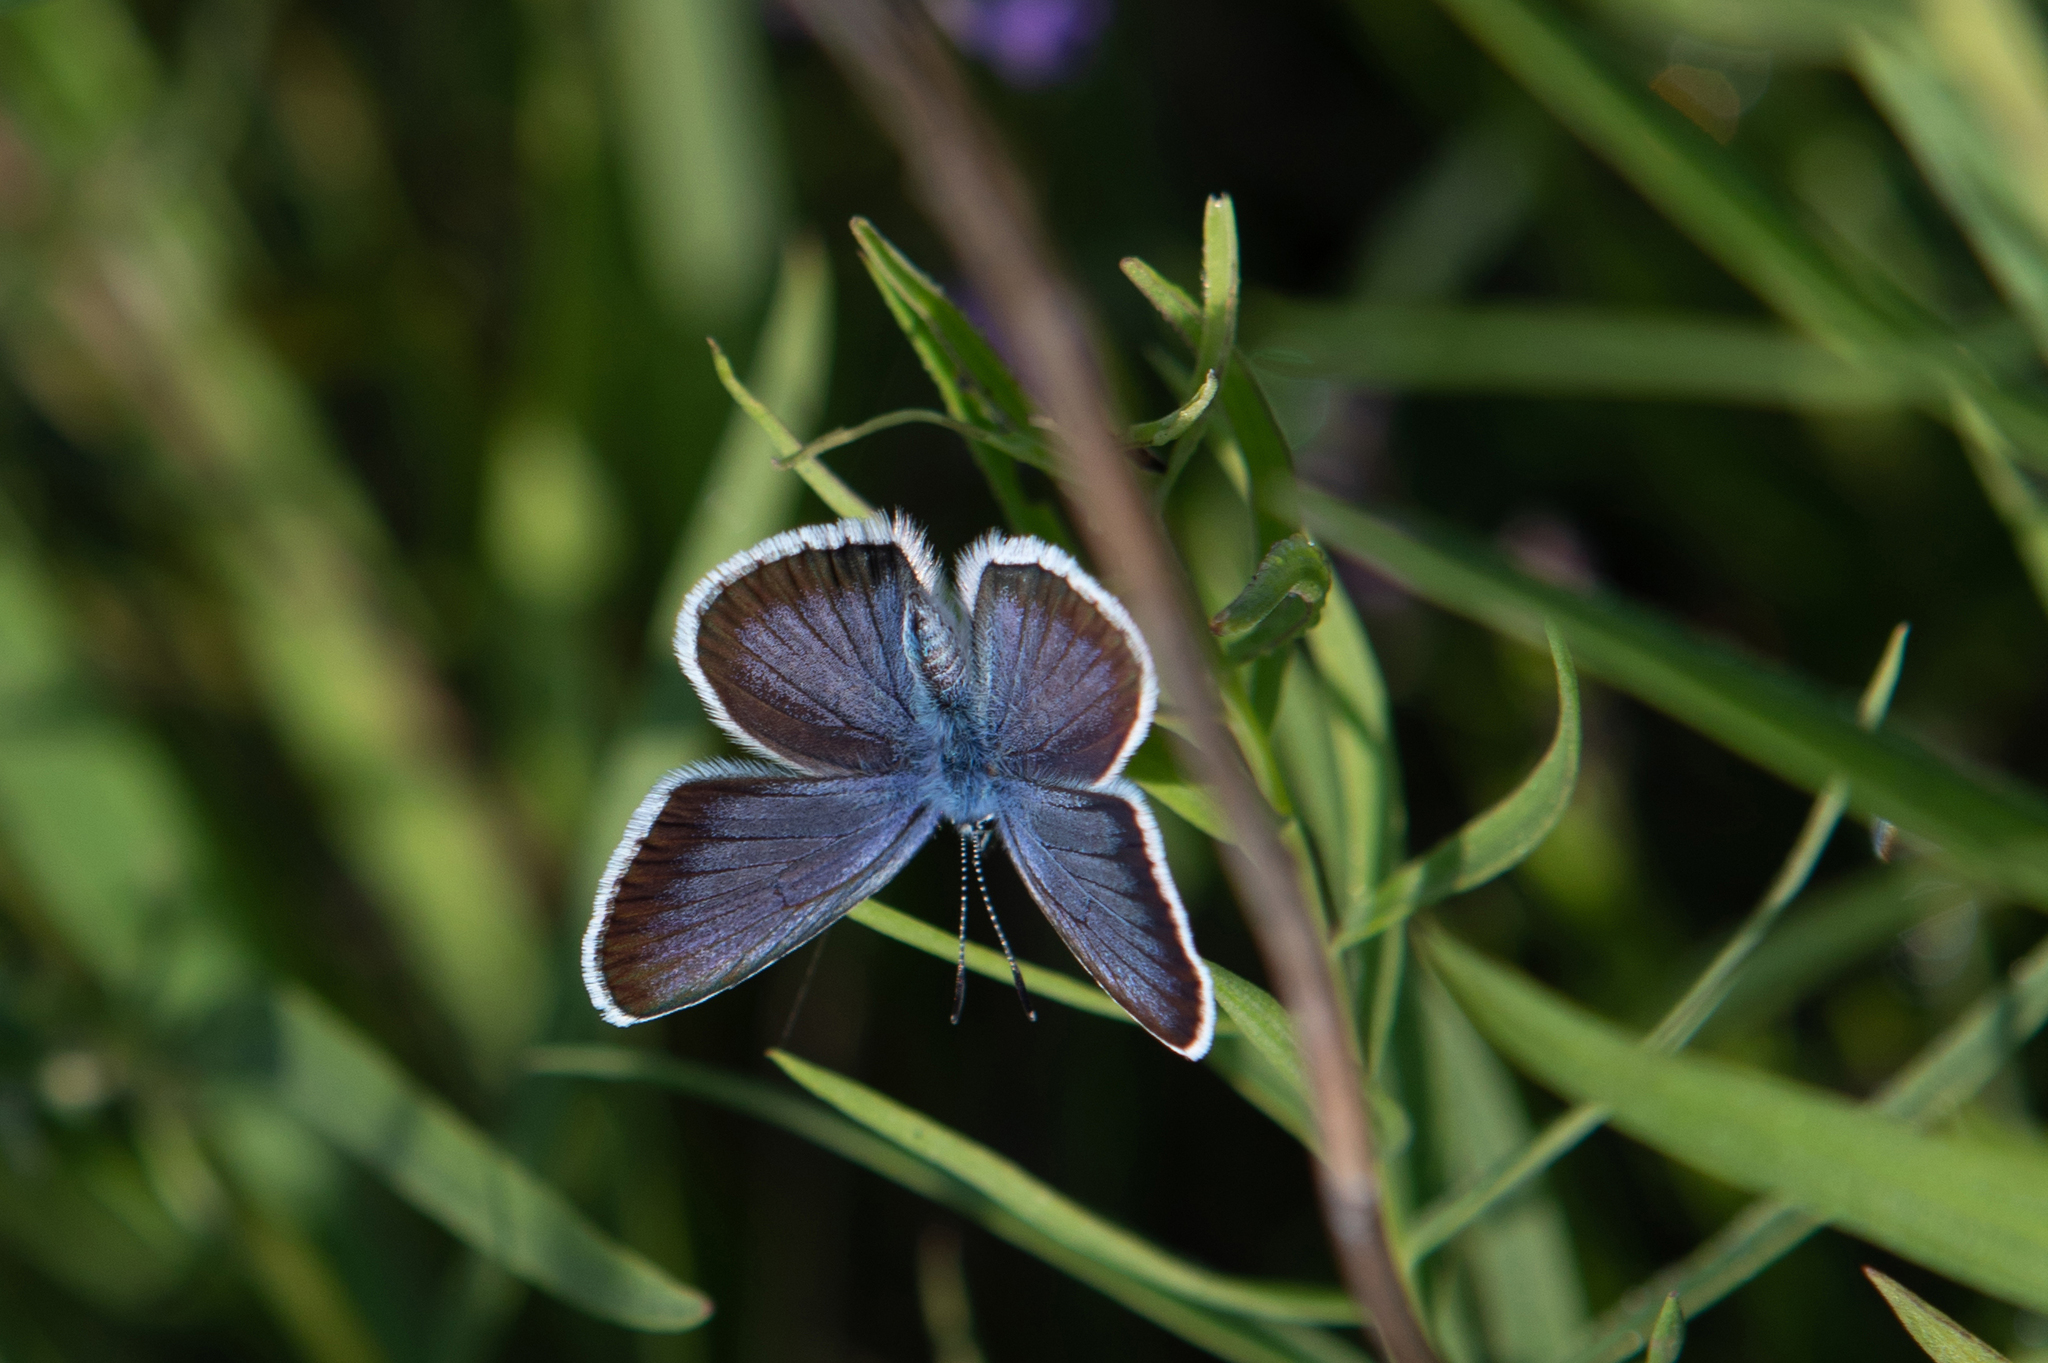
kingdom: Animalia
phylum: Arthropoda
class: Insecta
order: Lepidoptera
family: Lycaenidae
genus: Plebejus
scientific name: Plebejus argus
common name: Silver-studded blue
